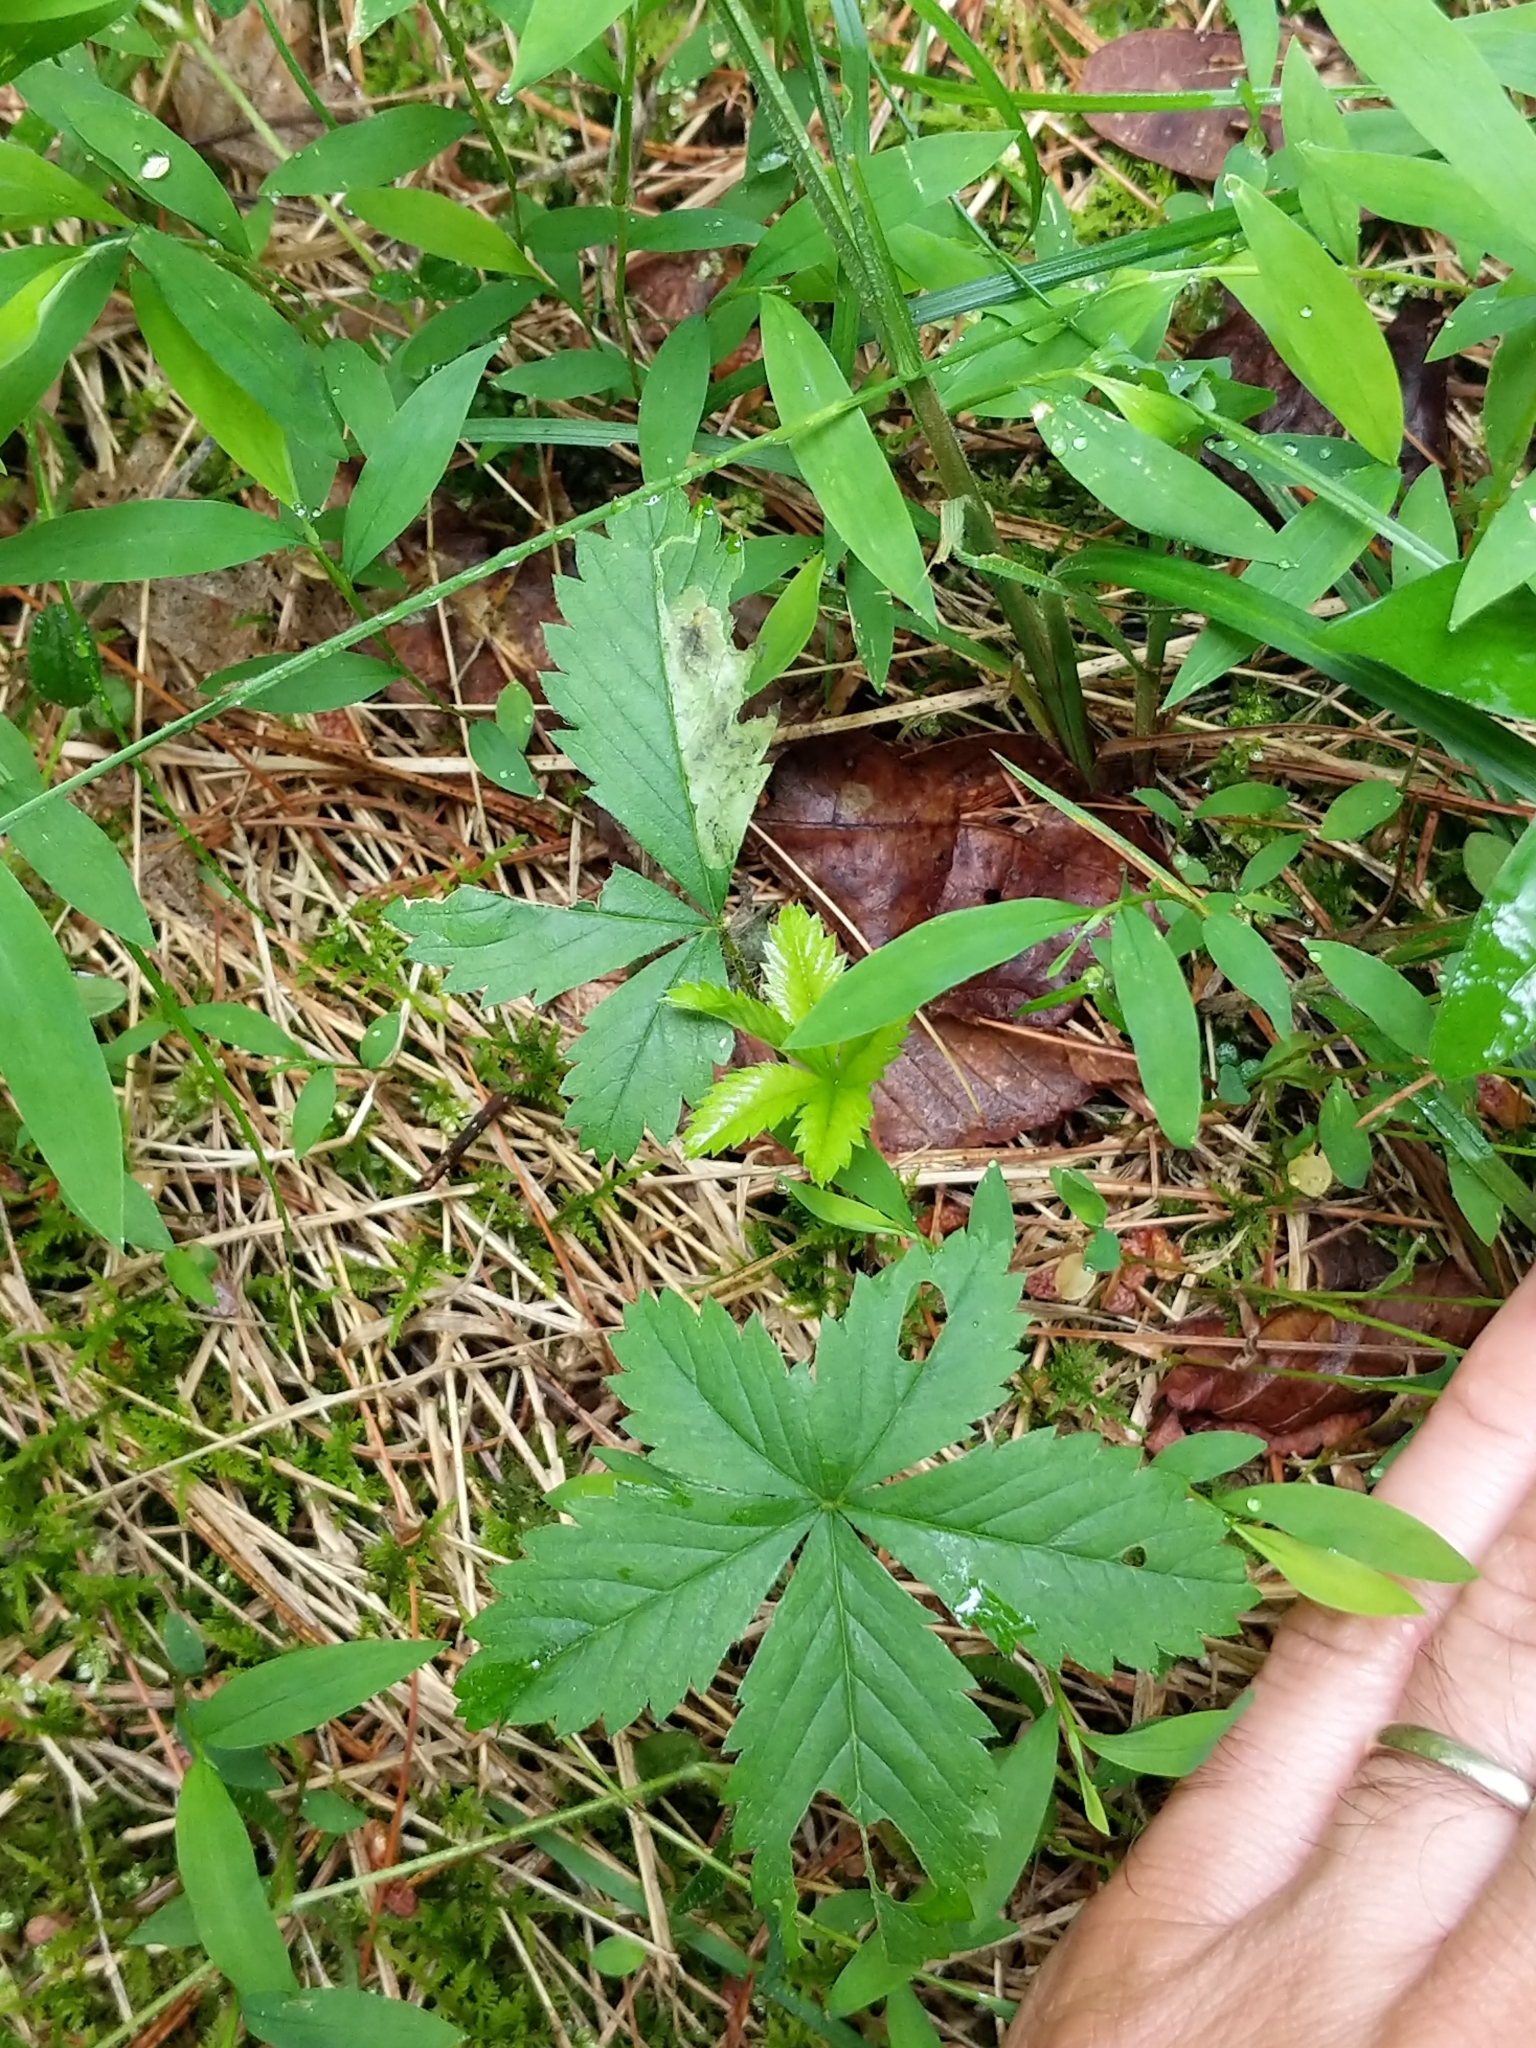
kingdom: Plantae
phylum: Tracheophyta
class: Magnoliopsida
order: Rosales
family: Rosaceae
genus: Potentilla
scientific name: Potentilla simplex
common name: Old field cinquefoil
